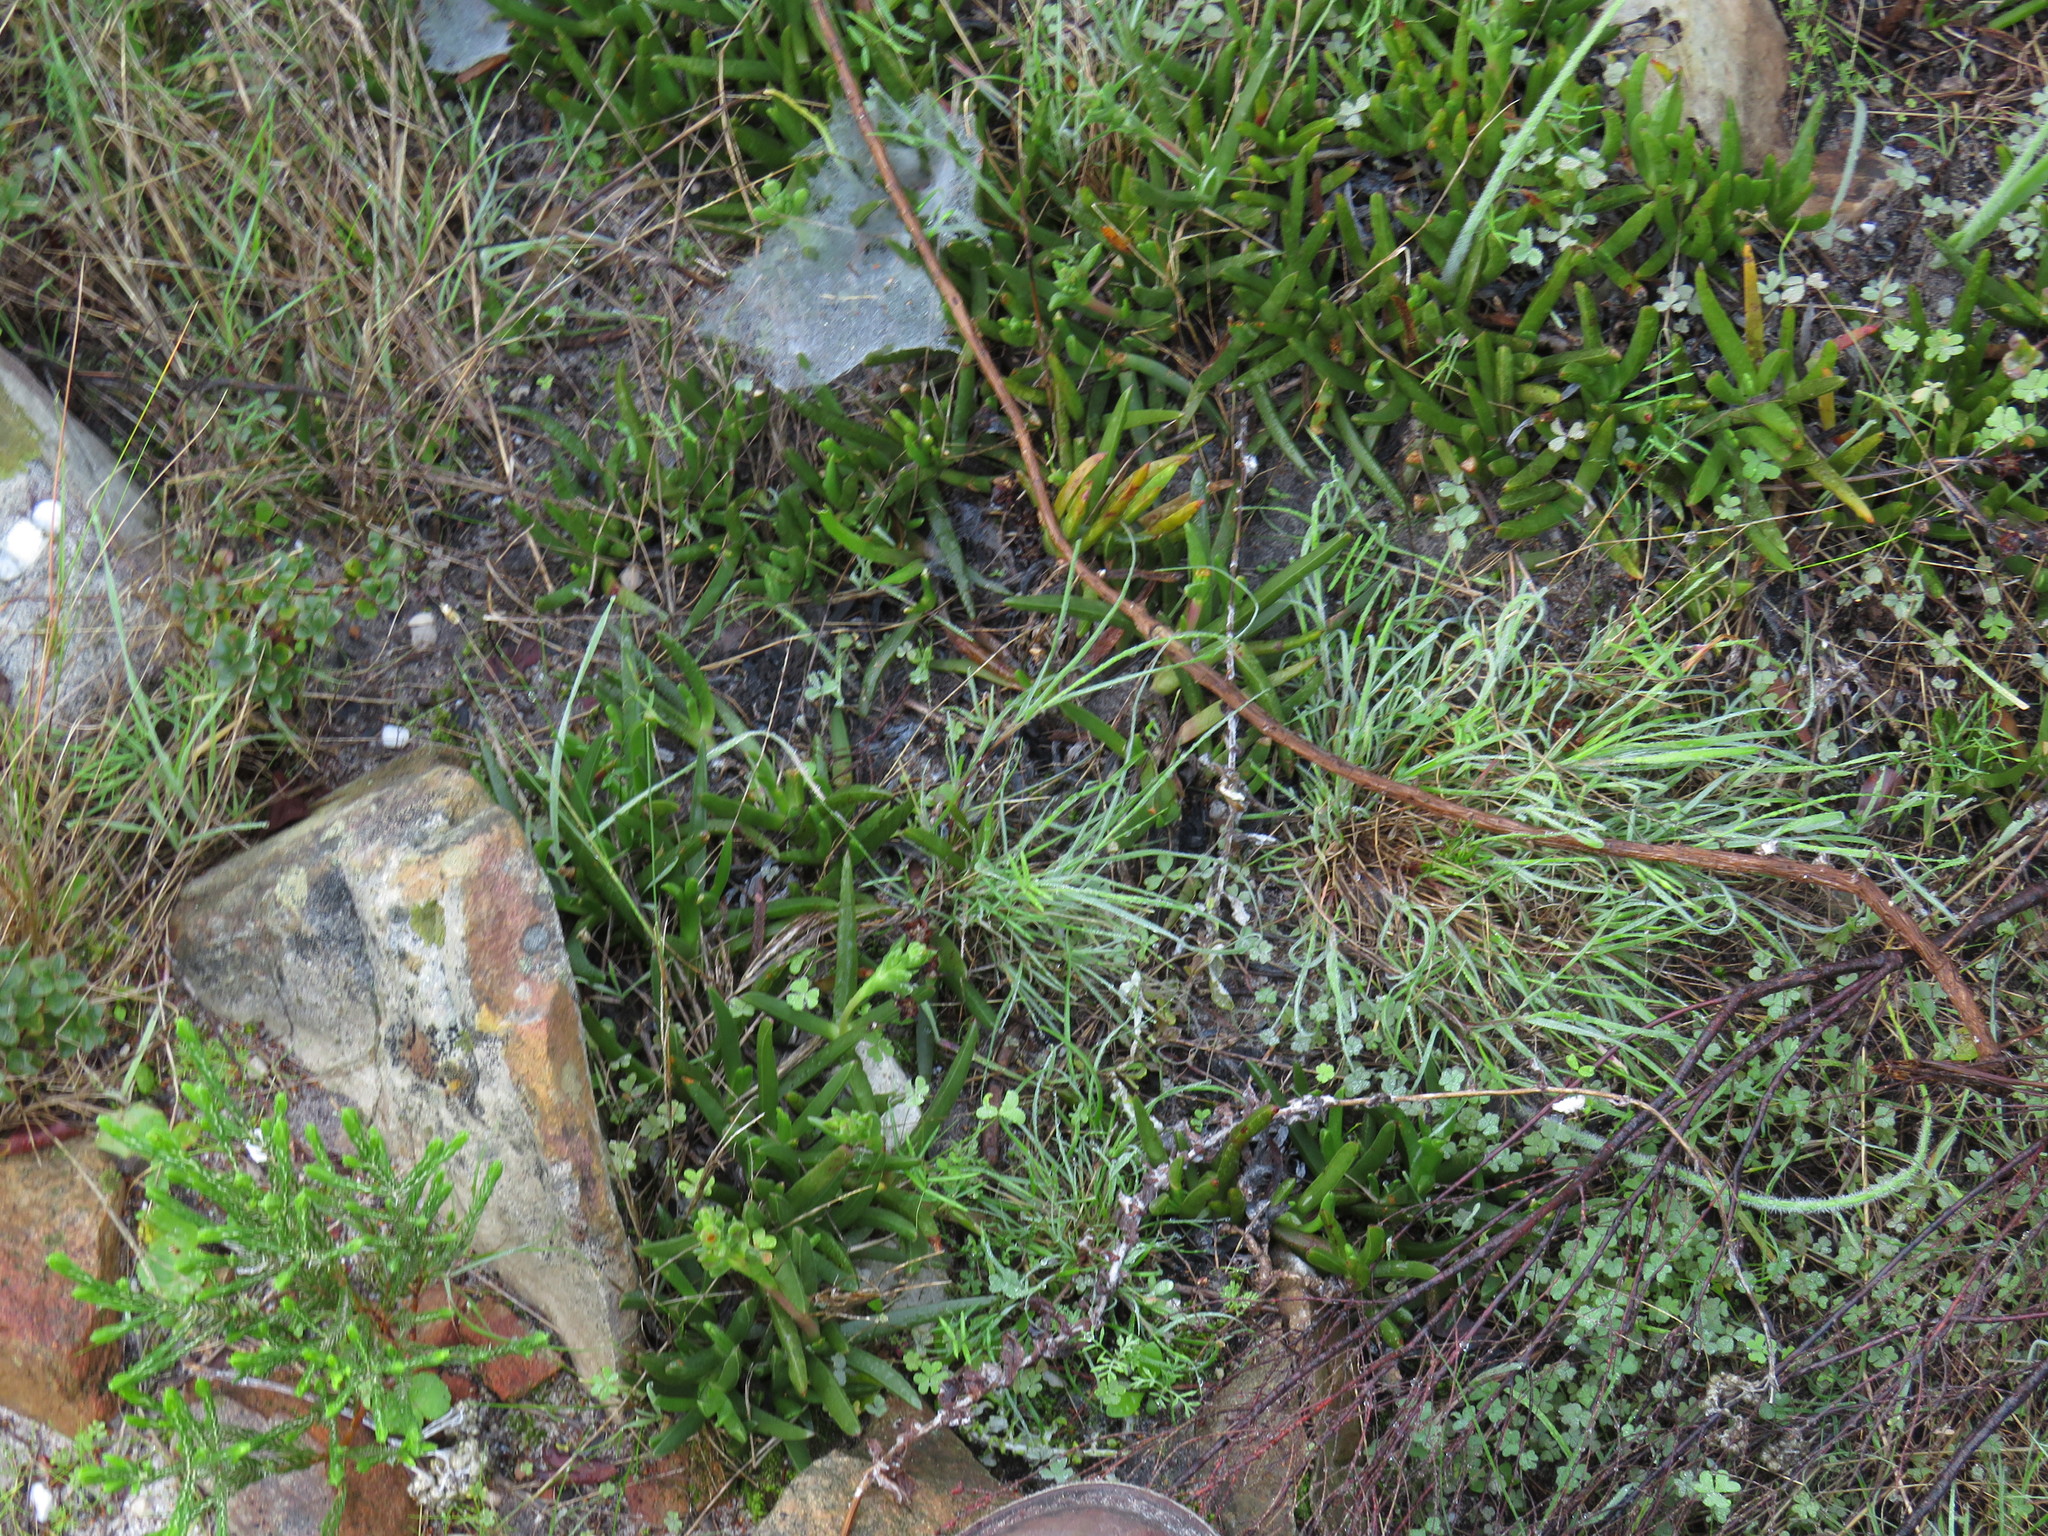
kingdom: Plantae
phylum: Tracheophyta
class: Magnoliopsida
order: Caryophyllales
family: Aizoaceae
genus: Ruschia
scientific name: Ruschia sarmentosa
